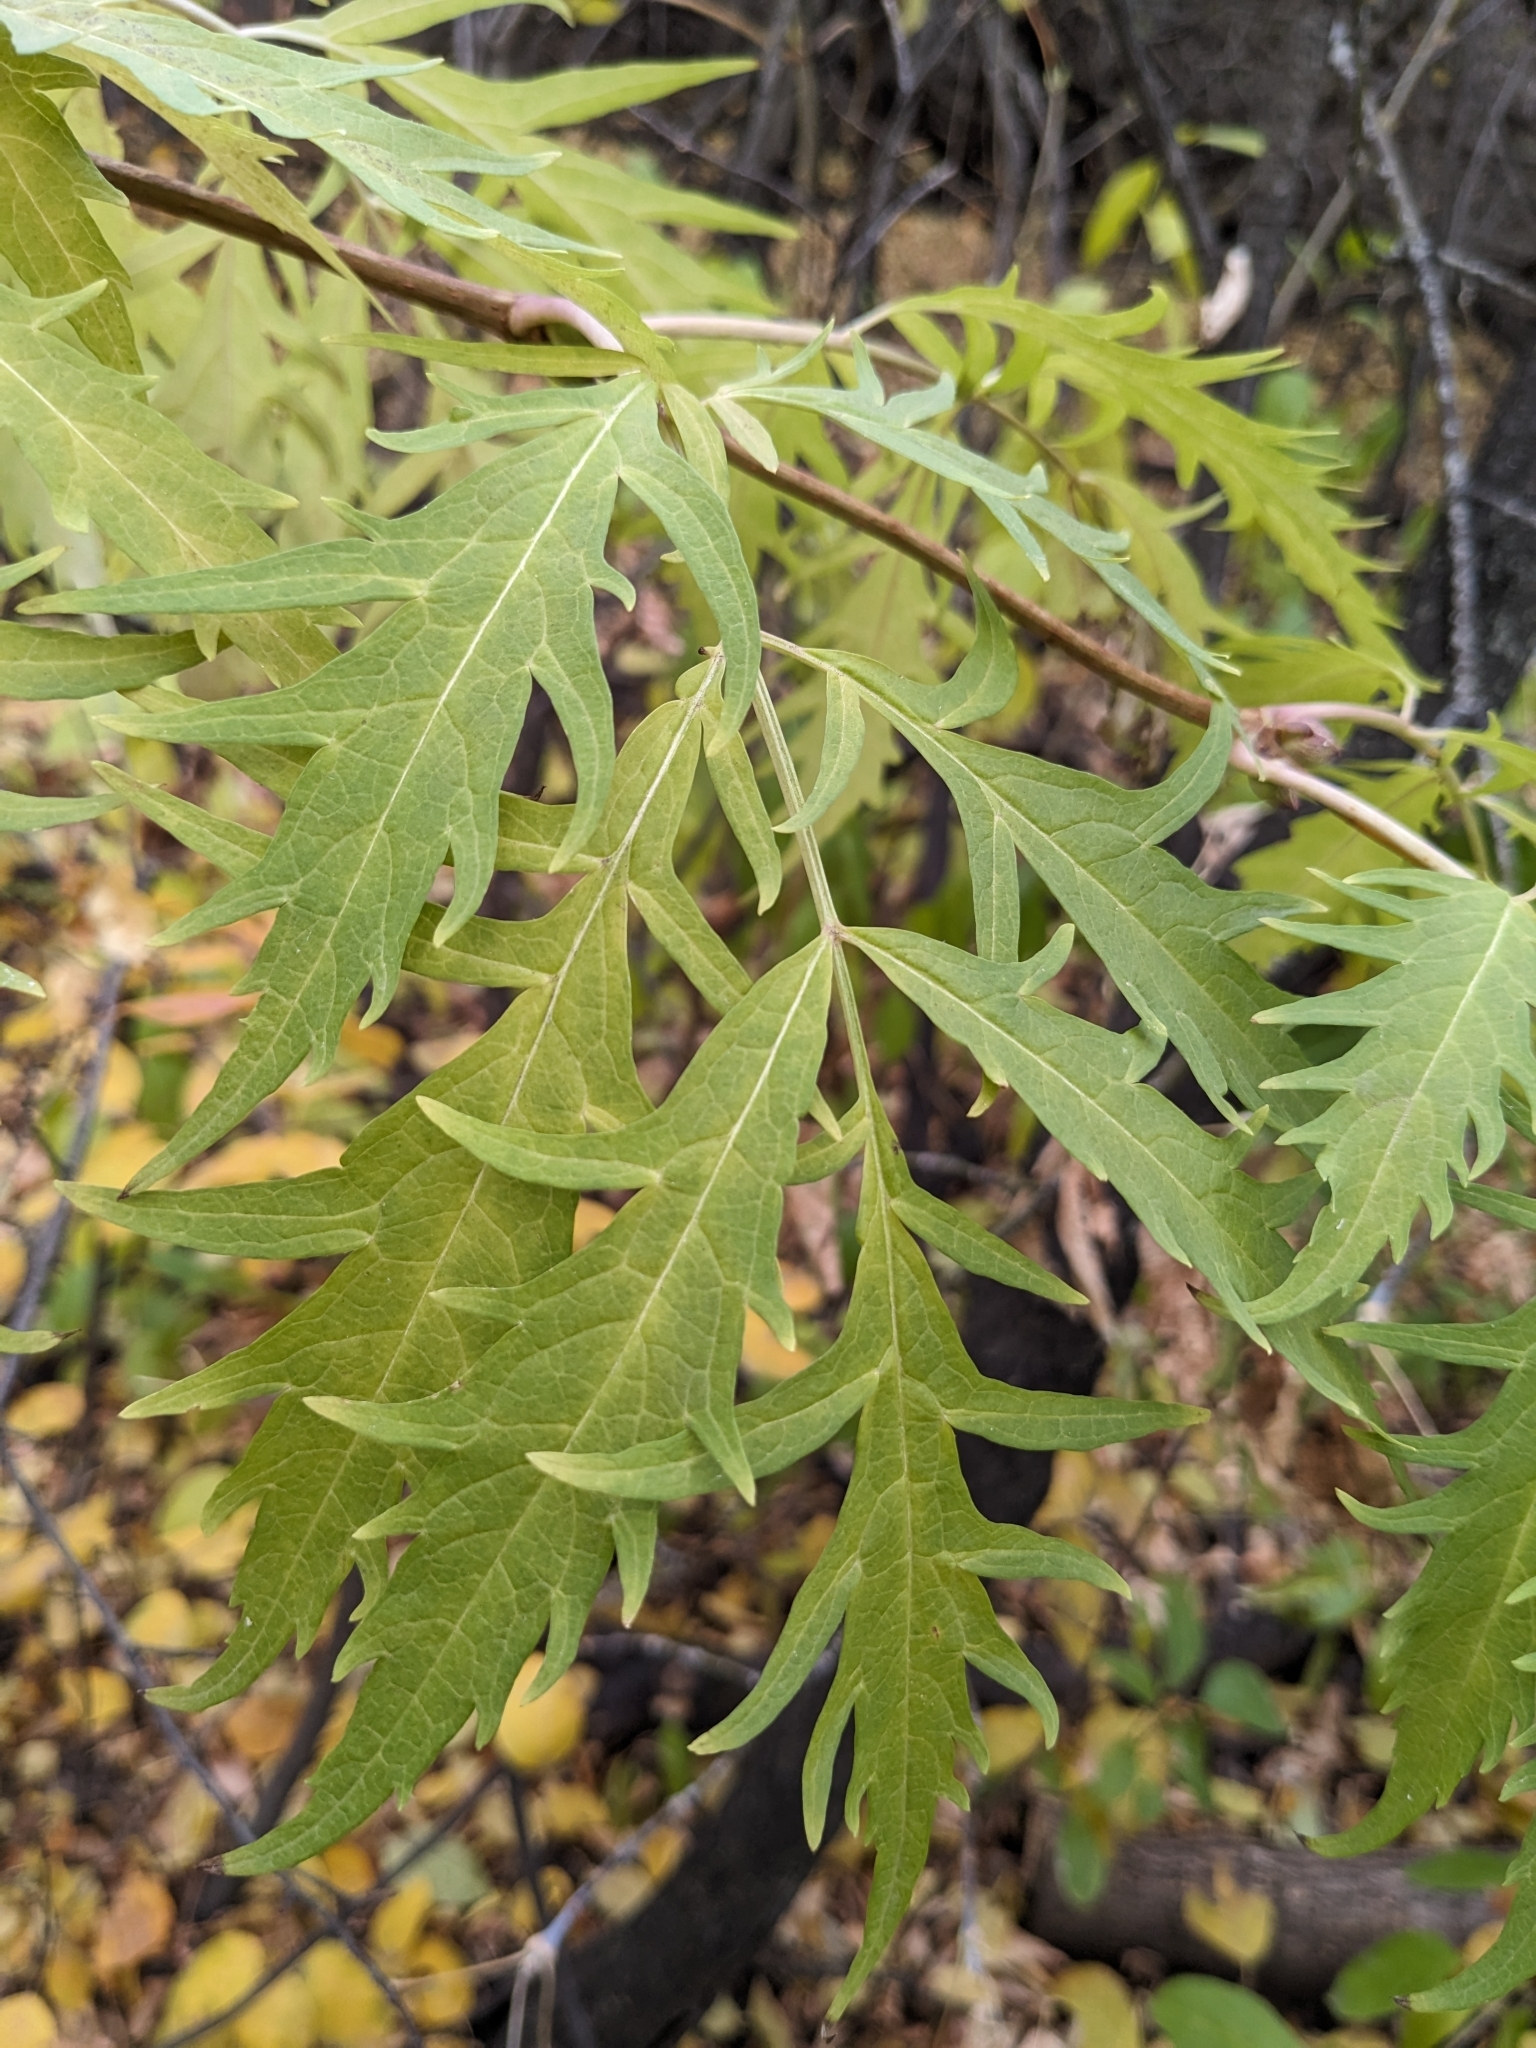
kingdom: Plantae
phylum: Tracheophyta
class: Magnoliopsida
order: Dipsacales
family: Viburnaceae
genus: Sambucus
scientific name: Sambucus racemosa
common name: Red-berried elder
